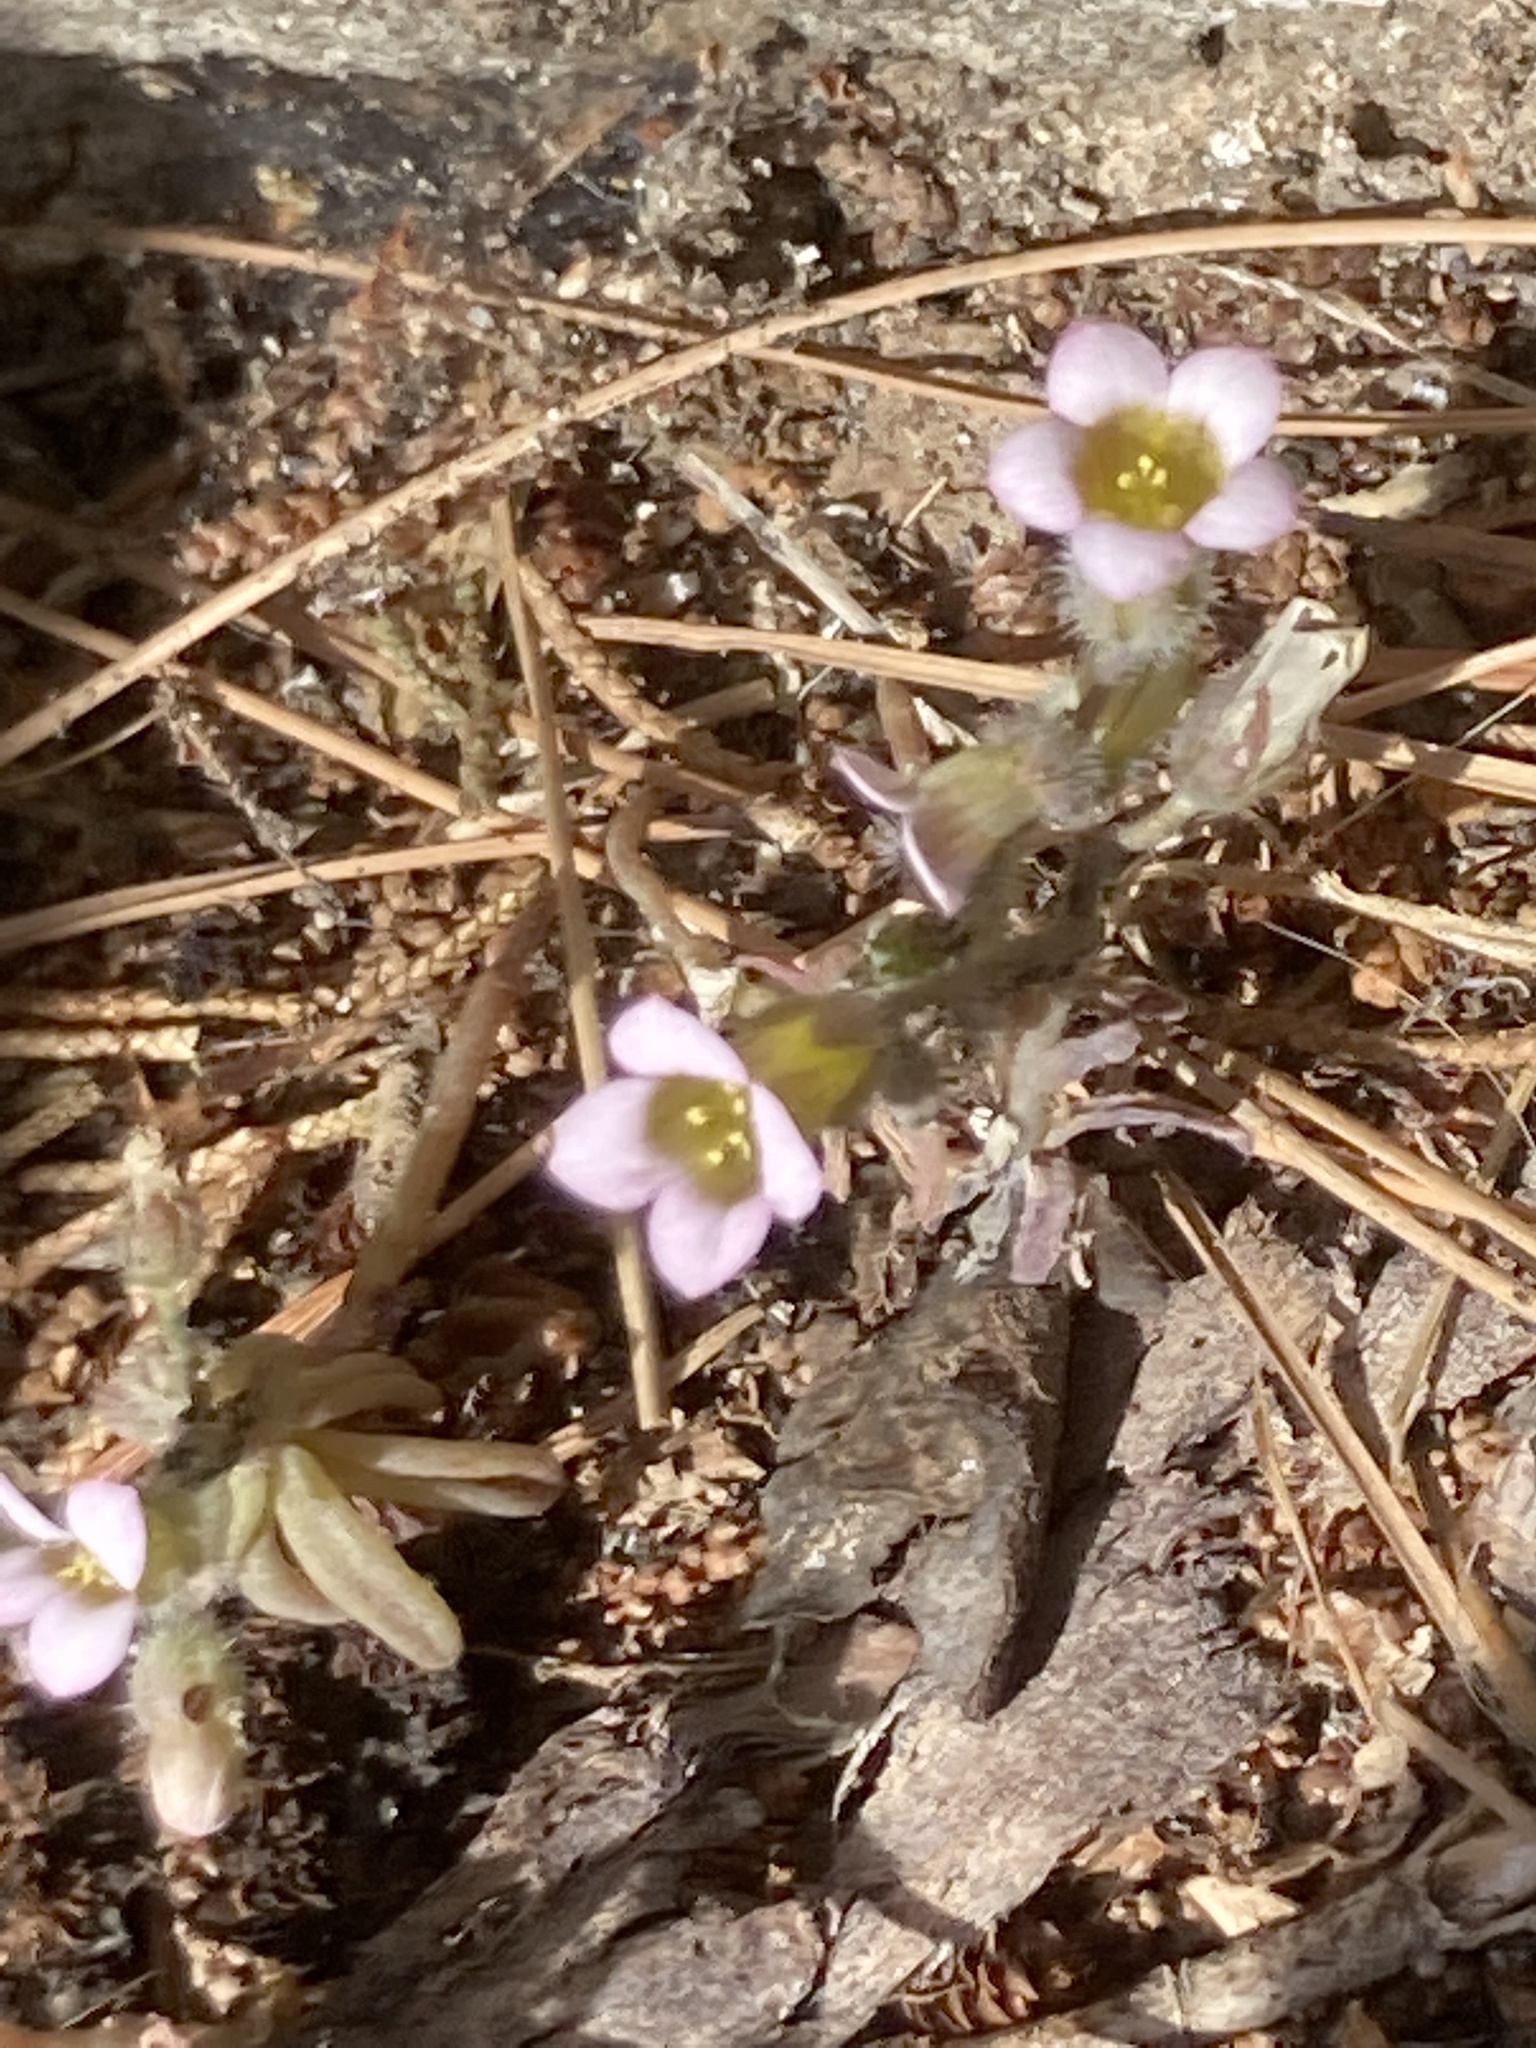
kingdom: Plantae
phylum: Tracheophyta
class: Magnoliopsida
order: Saxifragales
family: Crassulaceae
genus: Sedum
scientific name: Sedum mucizonia
